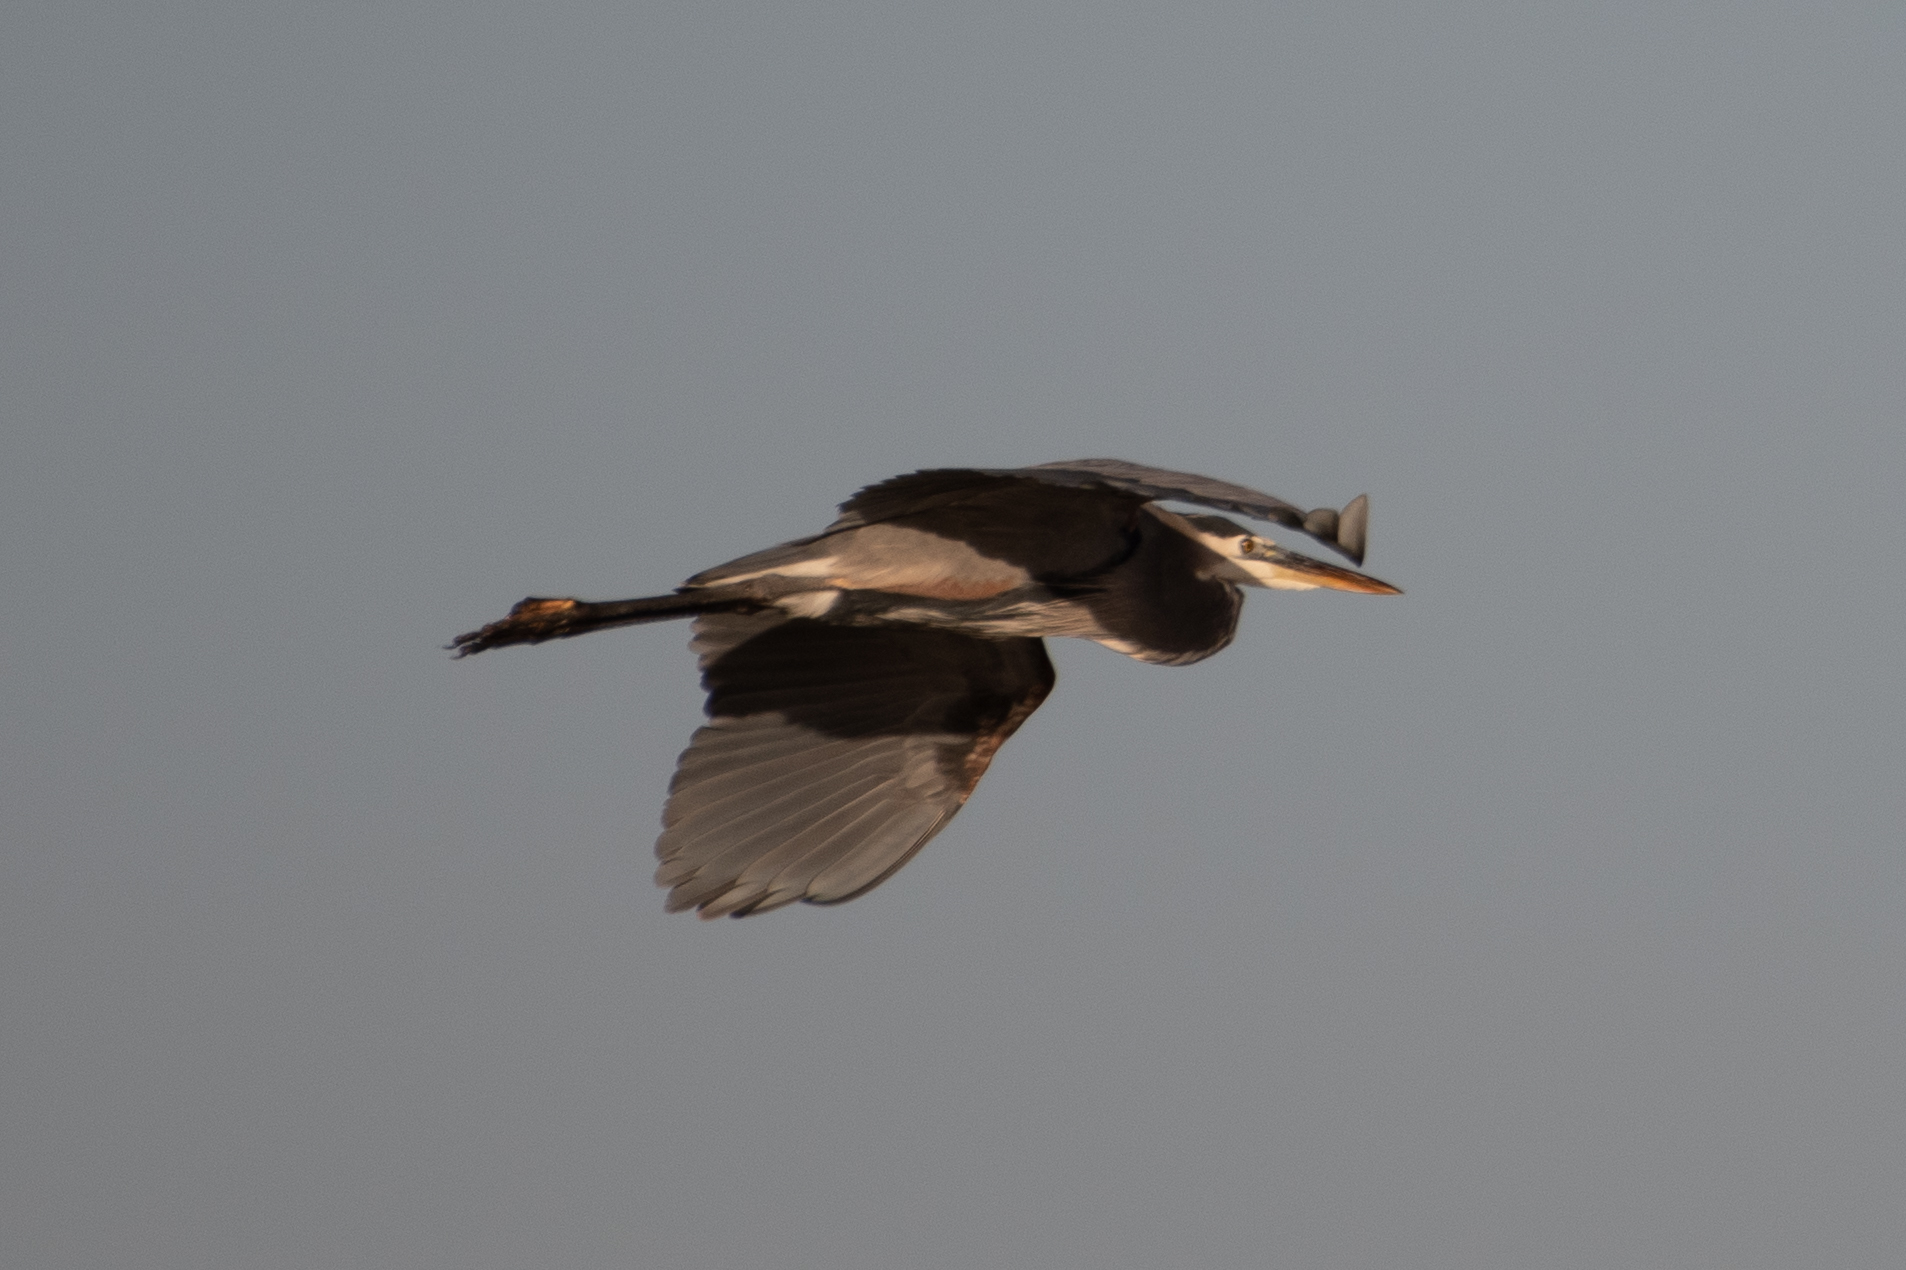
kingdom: Animalia
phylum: Chordata
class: Aves
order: Pelecaniformes
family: Ardeidae
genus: Ardea
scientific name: Ardea herodias
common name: Great blue heron
